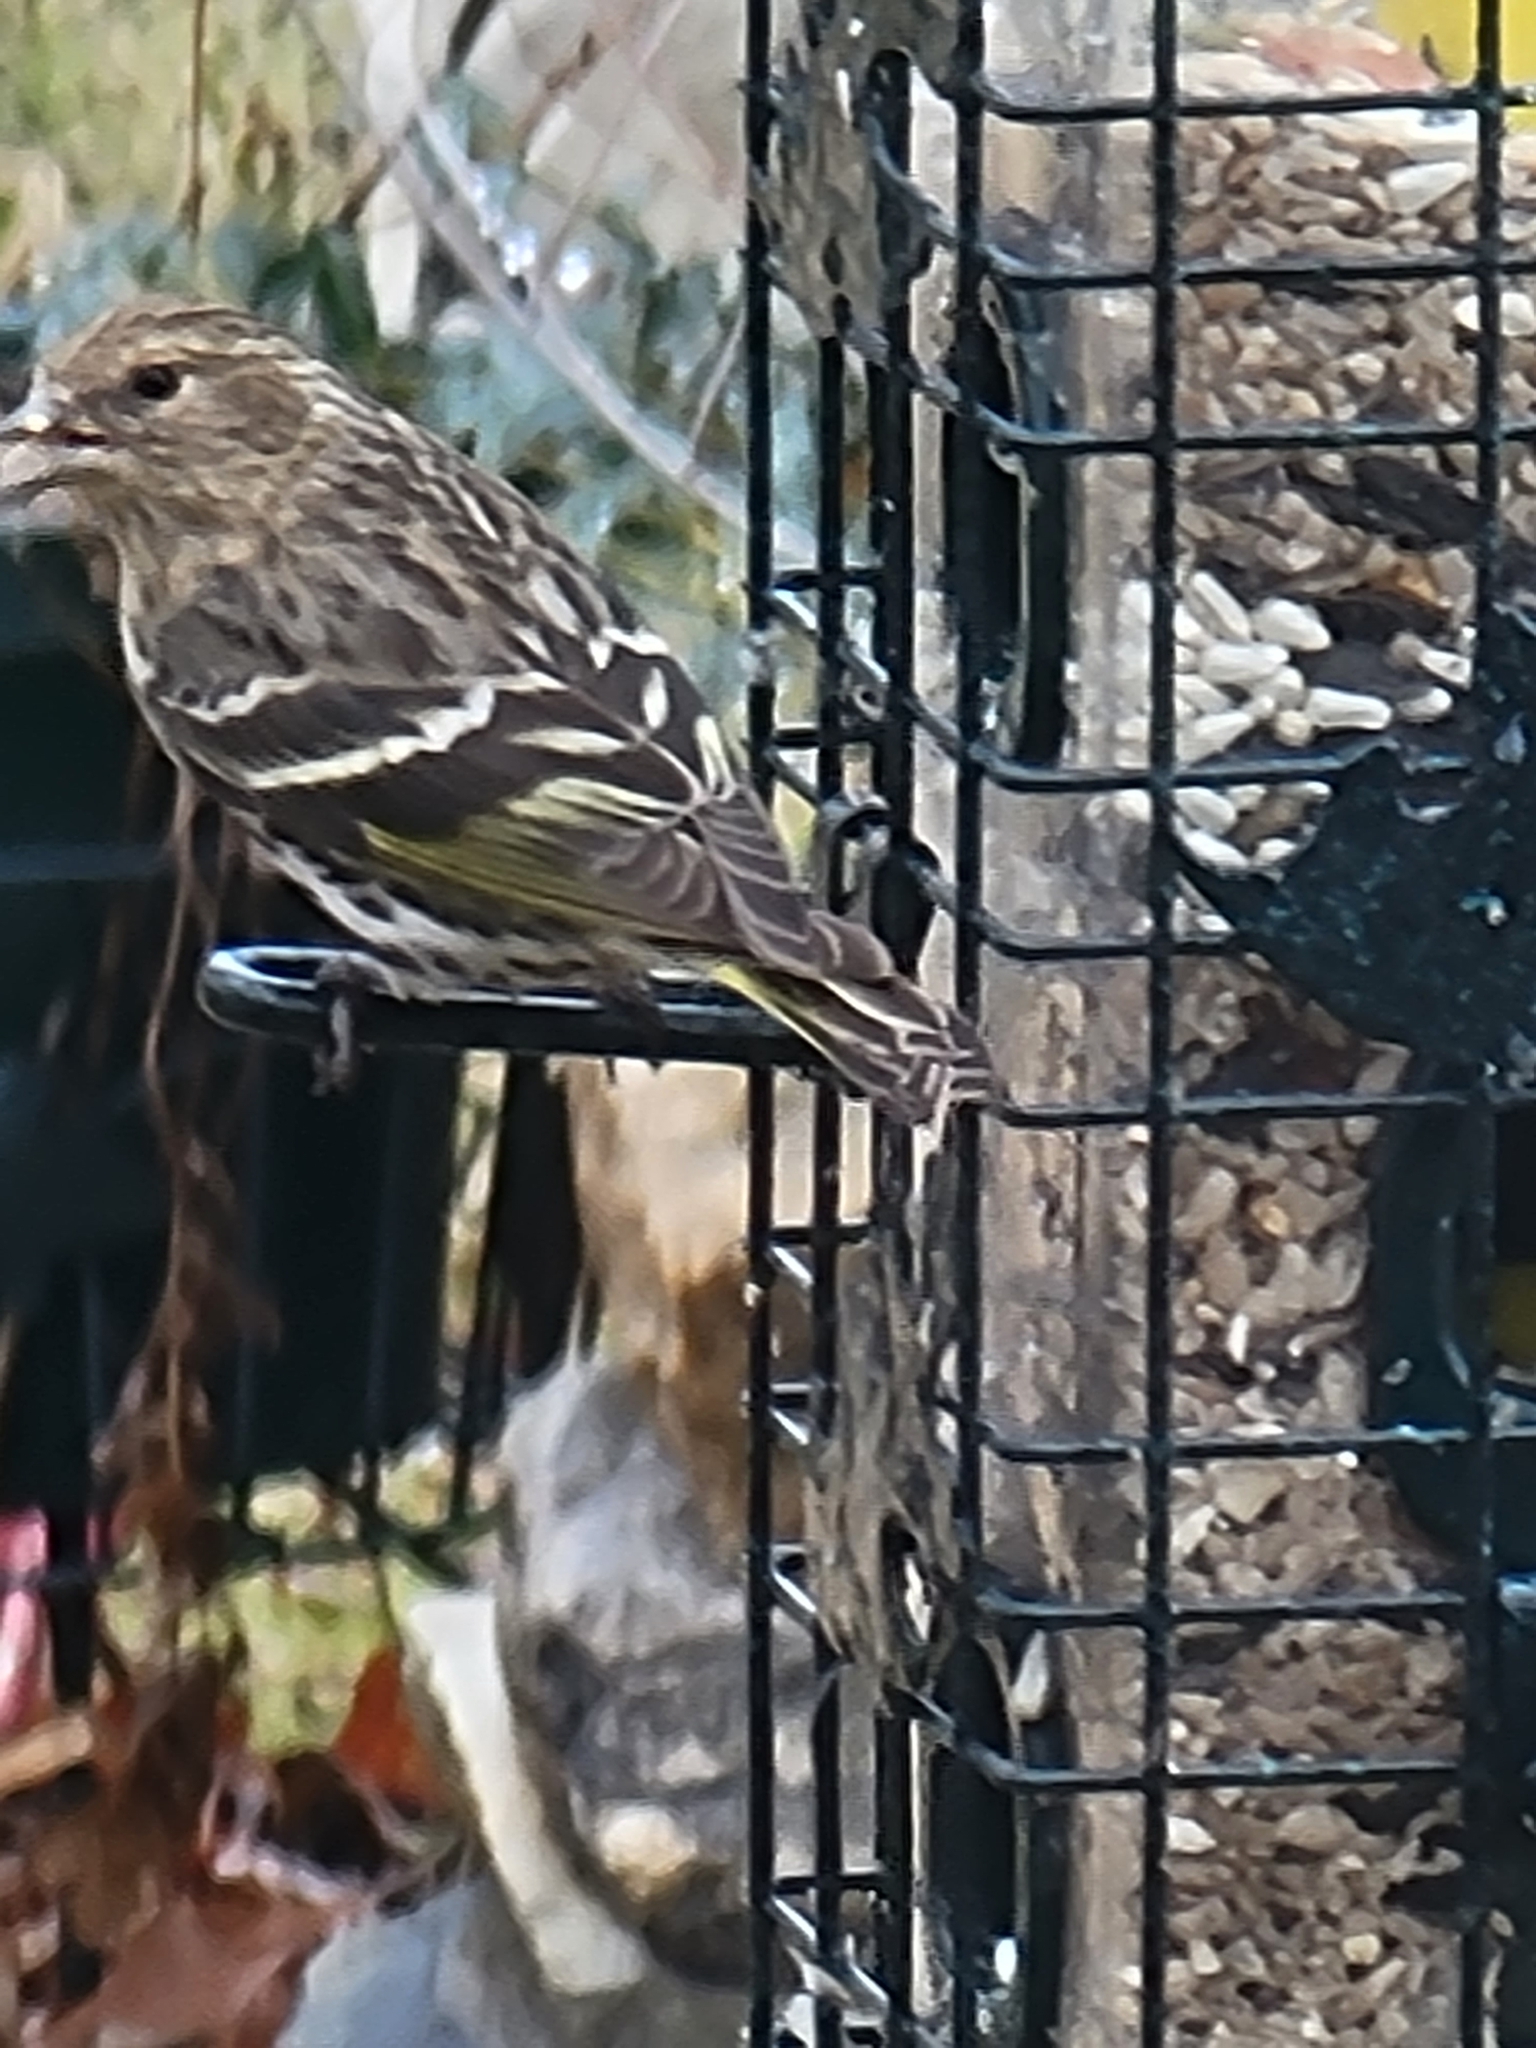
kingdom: Animalia
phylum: Chordata
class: Aves
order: Passeriformes
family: Fringillidae
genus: Spinus
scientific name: Spinus pinus
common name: Pine siskin
